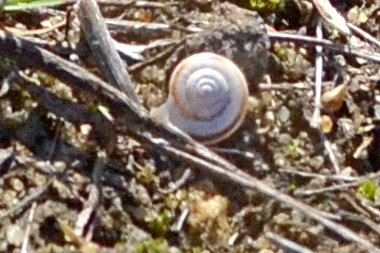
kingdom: Animalia
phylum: Mollusca
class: Gastropoda
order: Stylommatophora
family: Geomitridae
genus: Xerolenta
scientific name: Xerolenta obvia
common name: White heath snail
